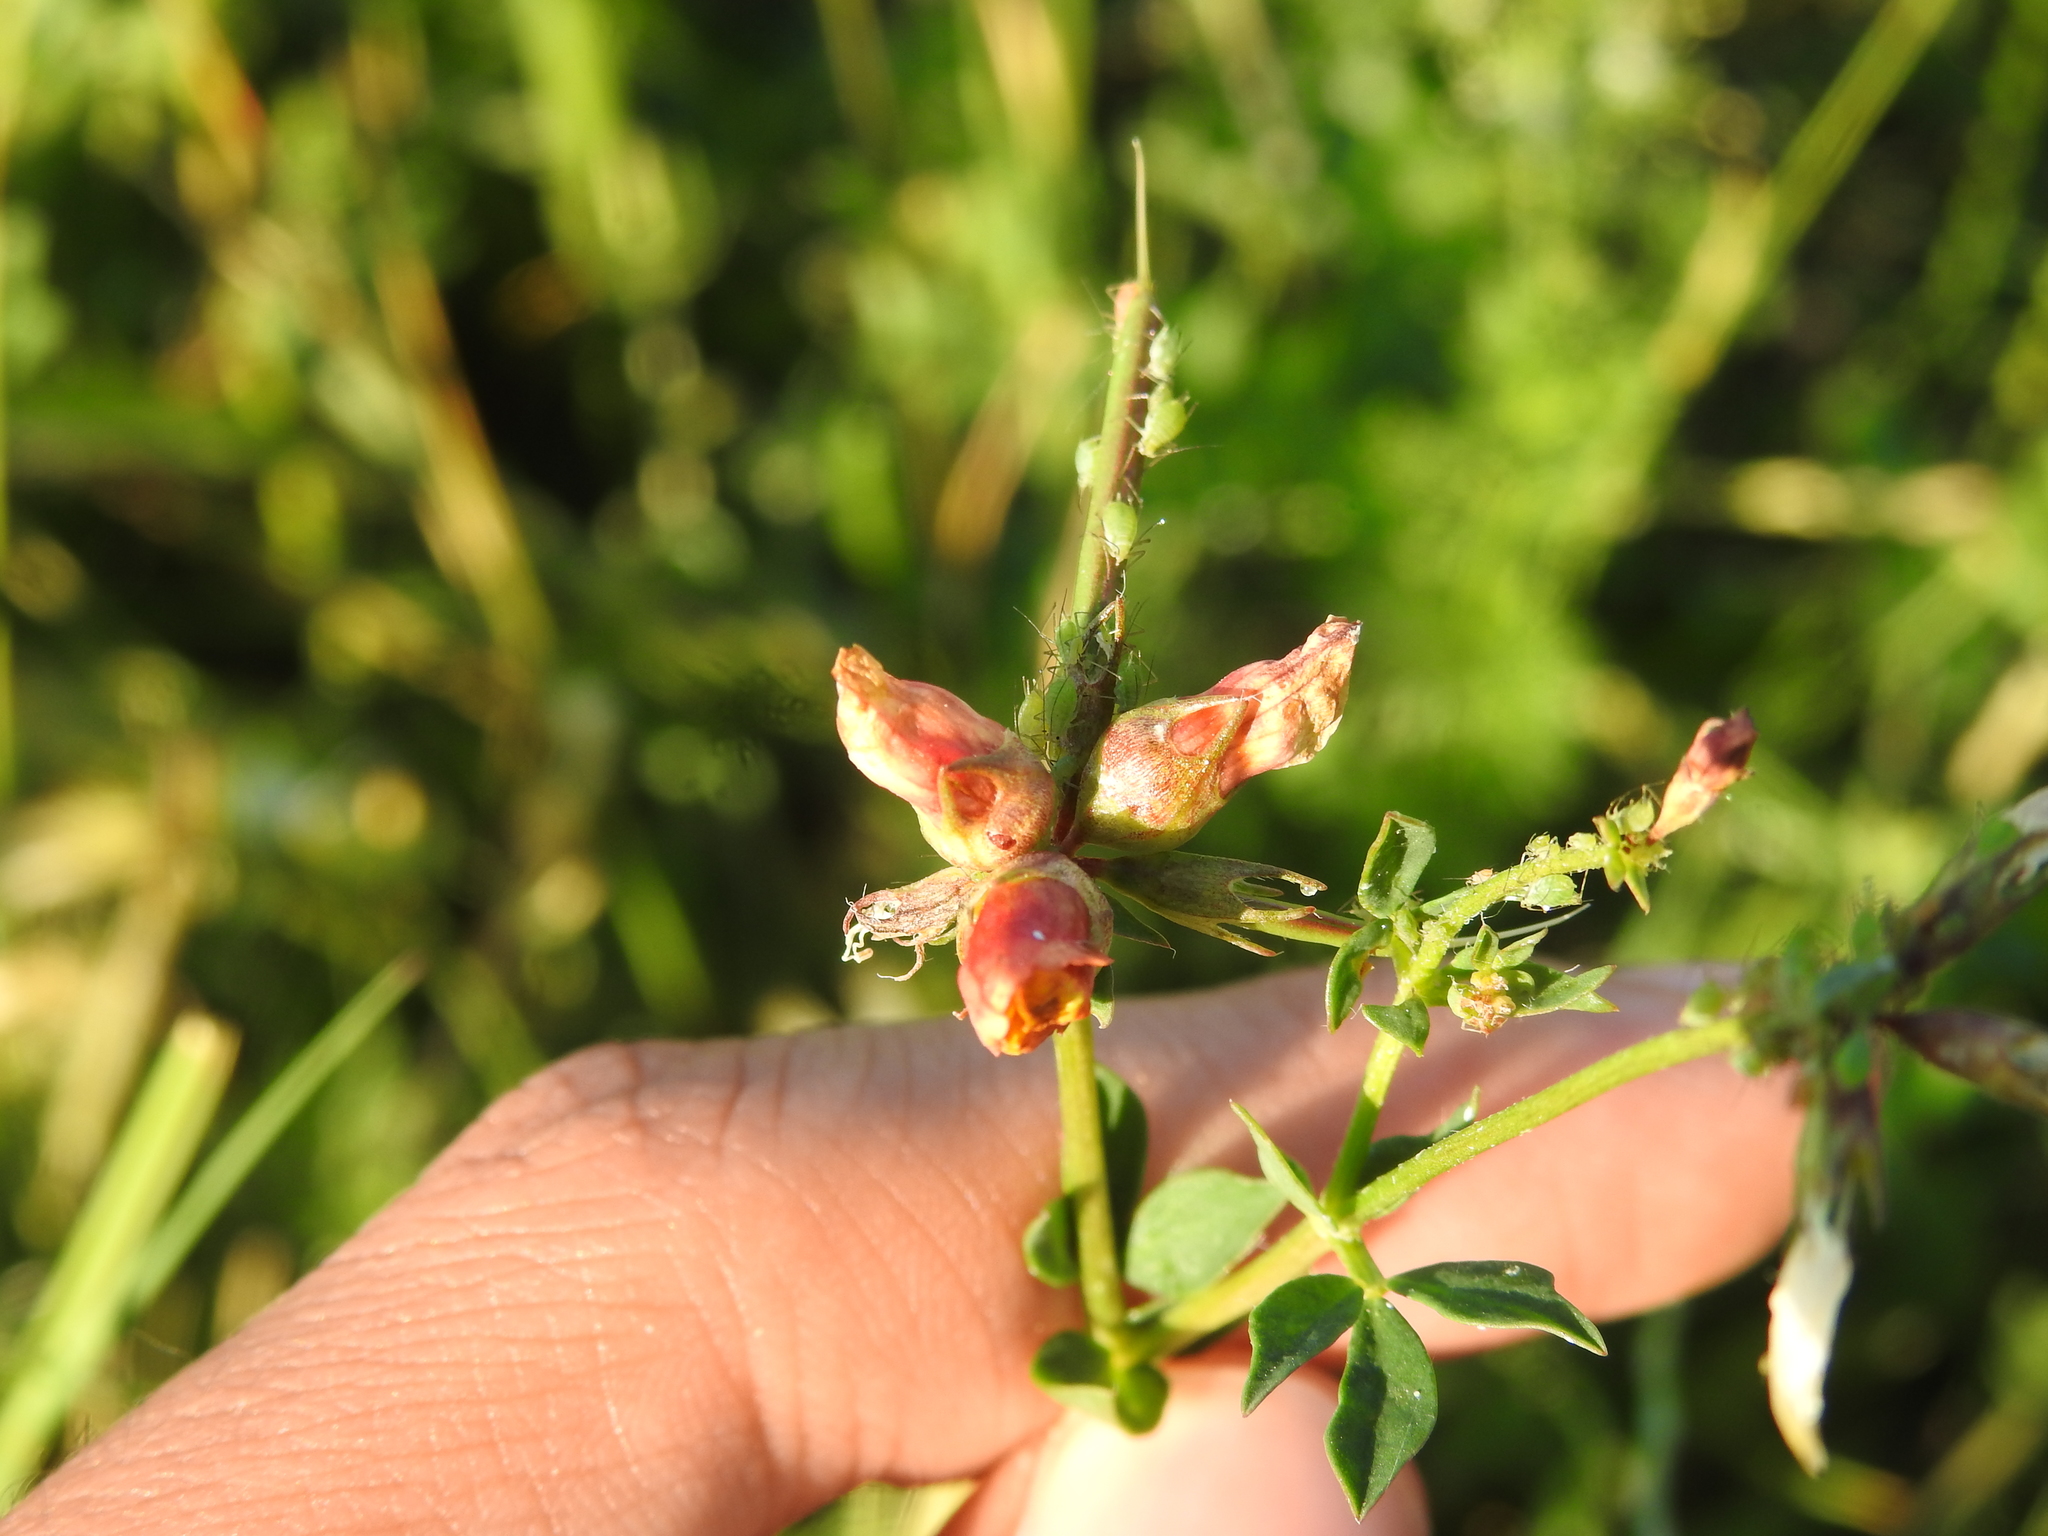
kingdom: Animalia
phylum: Arthropoda
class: Insecta
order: Diptera
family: Cecidomyiidae
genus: Contarinia
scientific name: Contarinia loti
